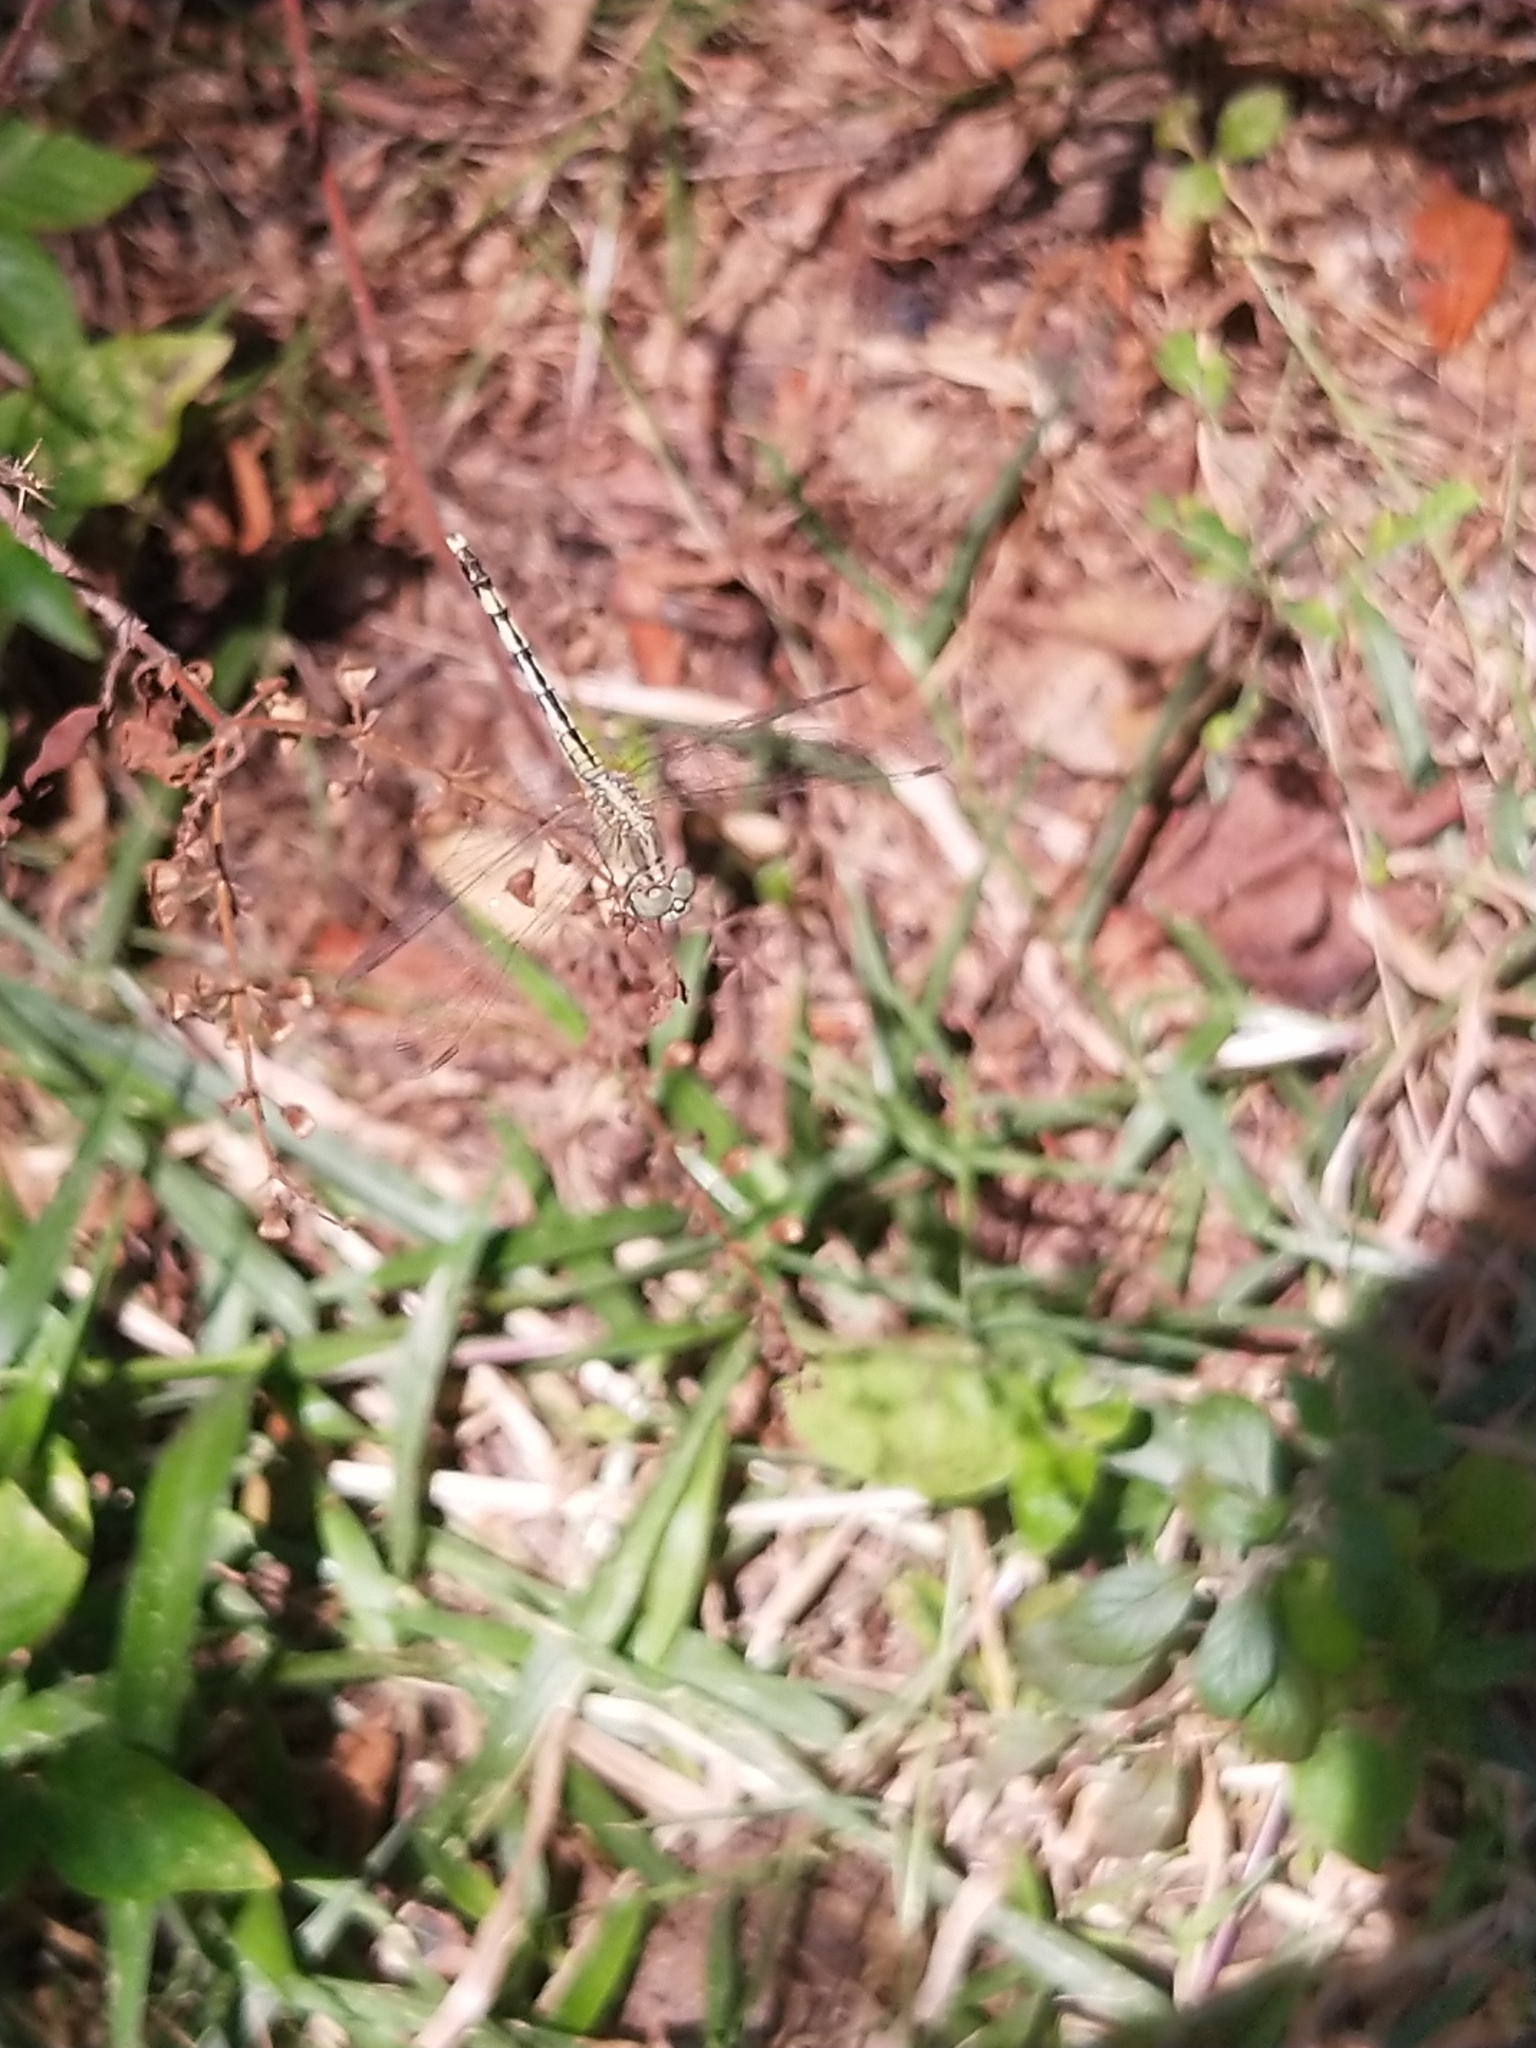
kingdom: Animalia
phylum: Arthropoda
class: Insecta
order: Odonata
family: Libellulidae
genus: Diplacodes
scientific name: Diplacodes trivialis
